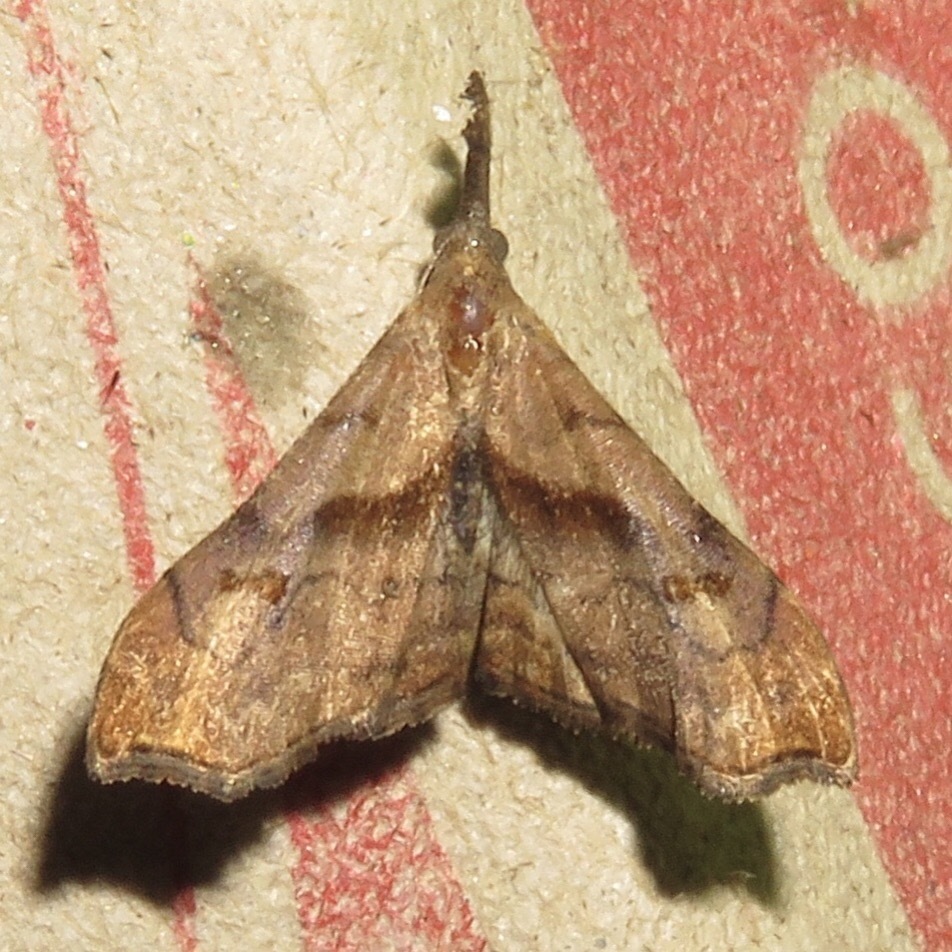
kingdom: Animalia
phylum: Arthropoda
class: Insecta
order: Lepidoptera
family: Erebidae
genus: Palthis
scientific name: Palthis angulalis
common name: Dark-spotted palthis moth
